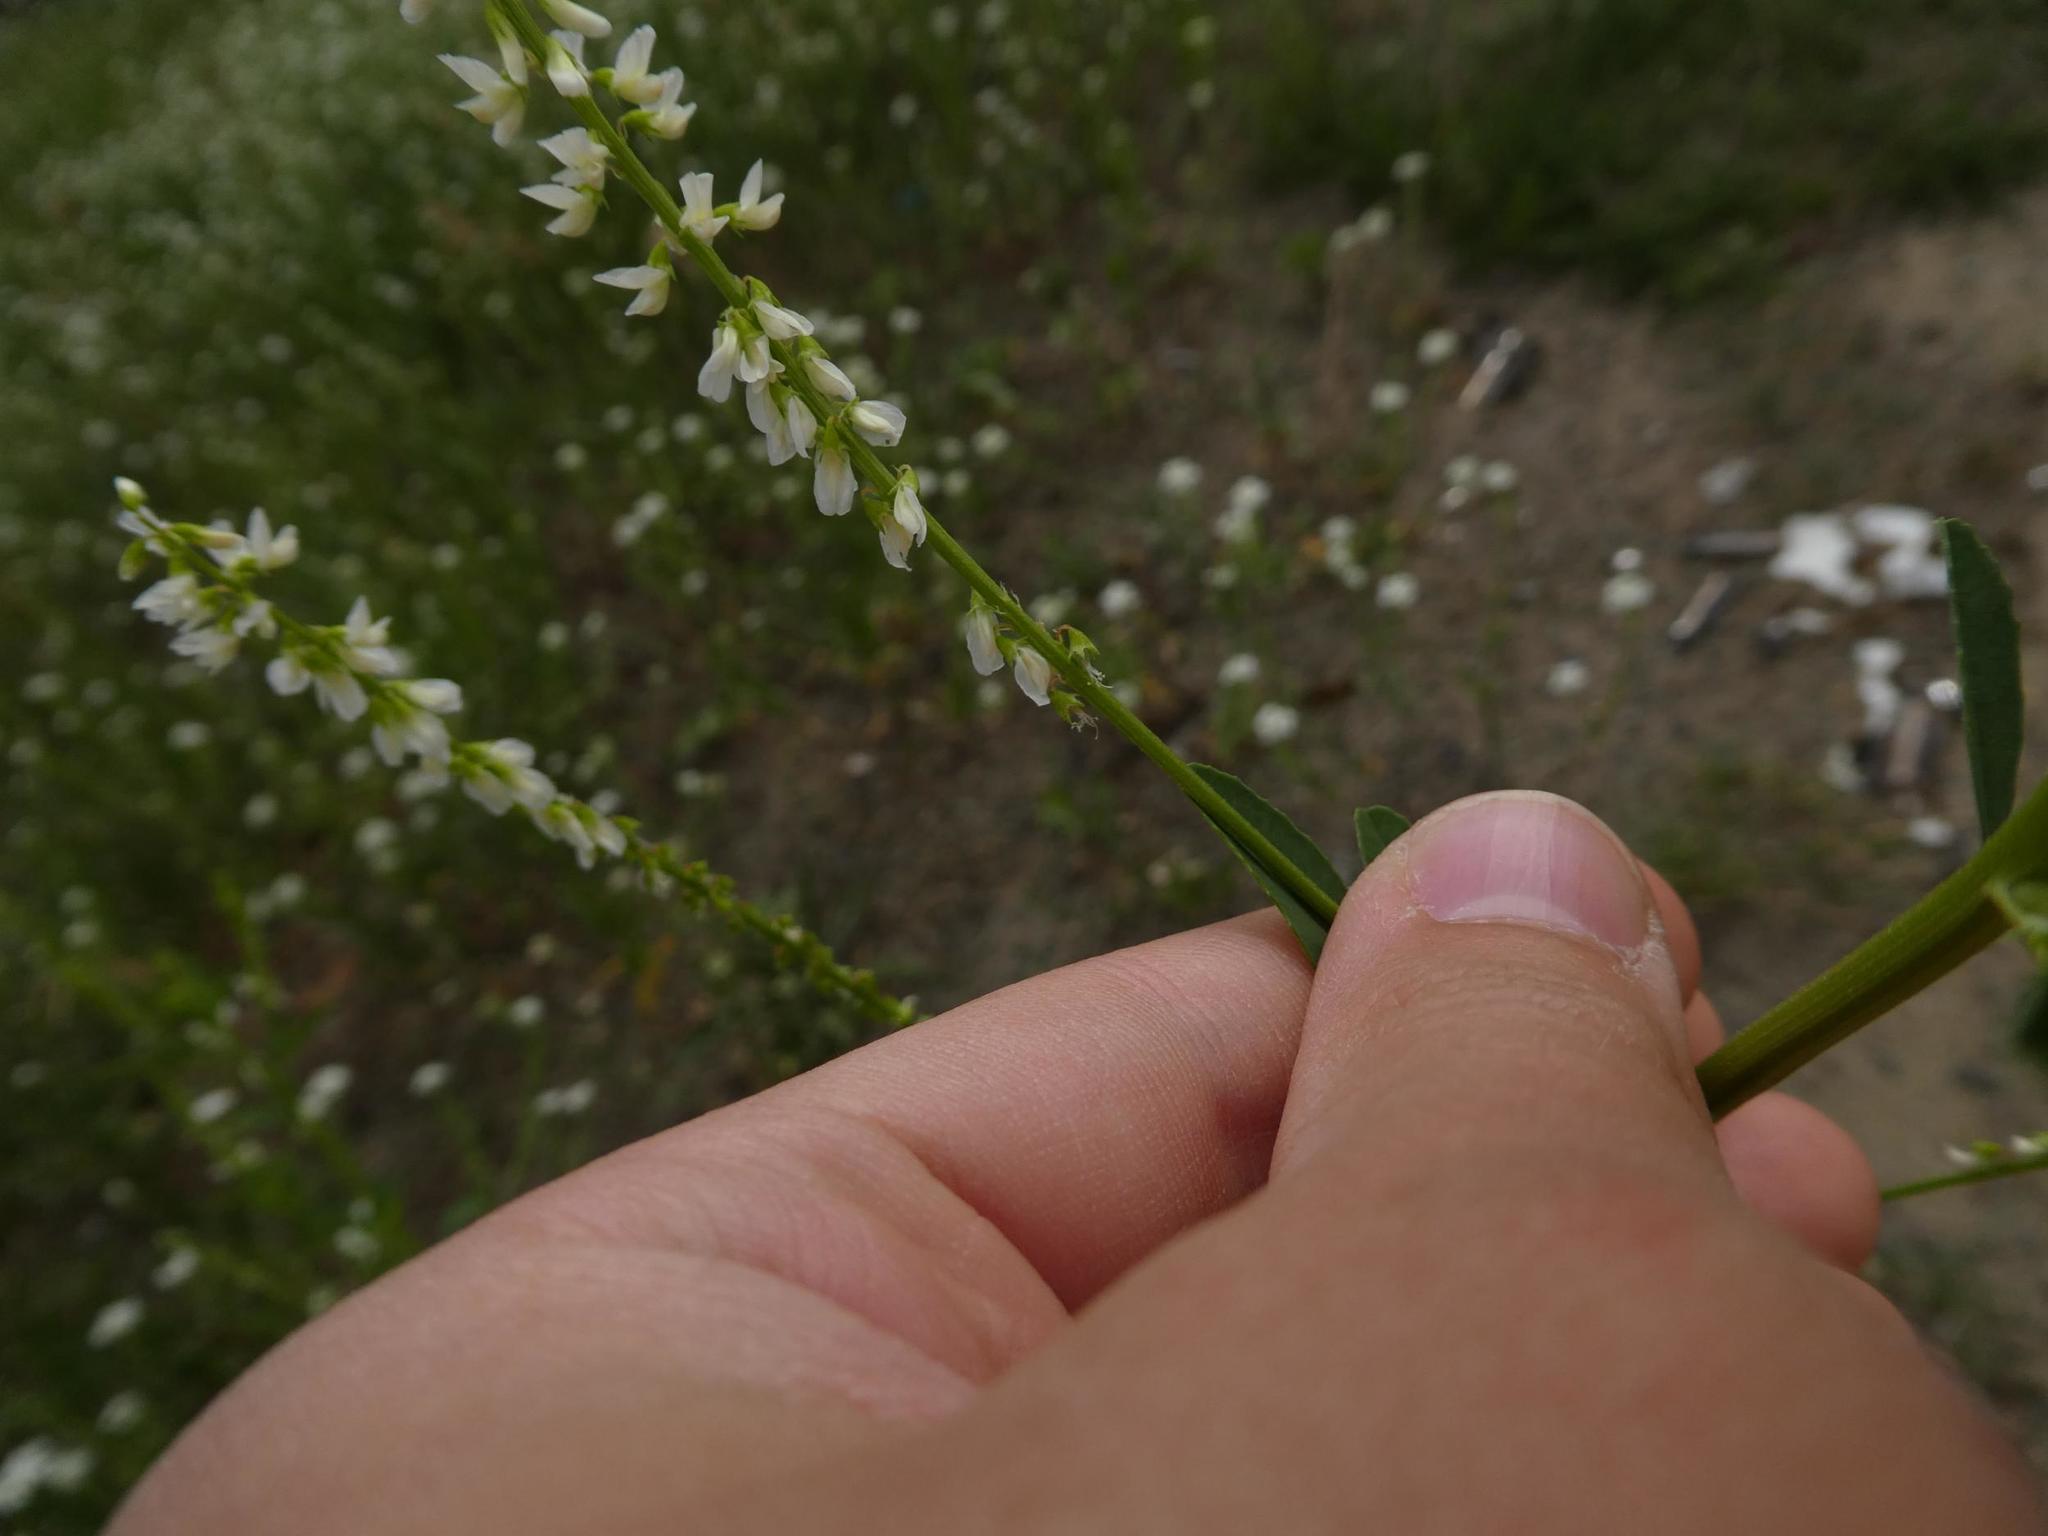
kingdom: Plantae
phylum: Tracheophyta
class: Magnoliopsida
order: Fabales
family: Fabaceae
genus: Melilotus
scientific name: Melilotus albus
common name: White melilot
